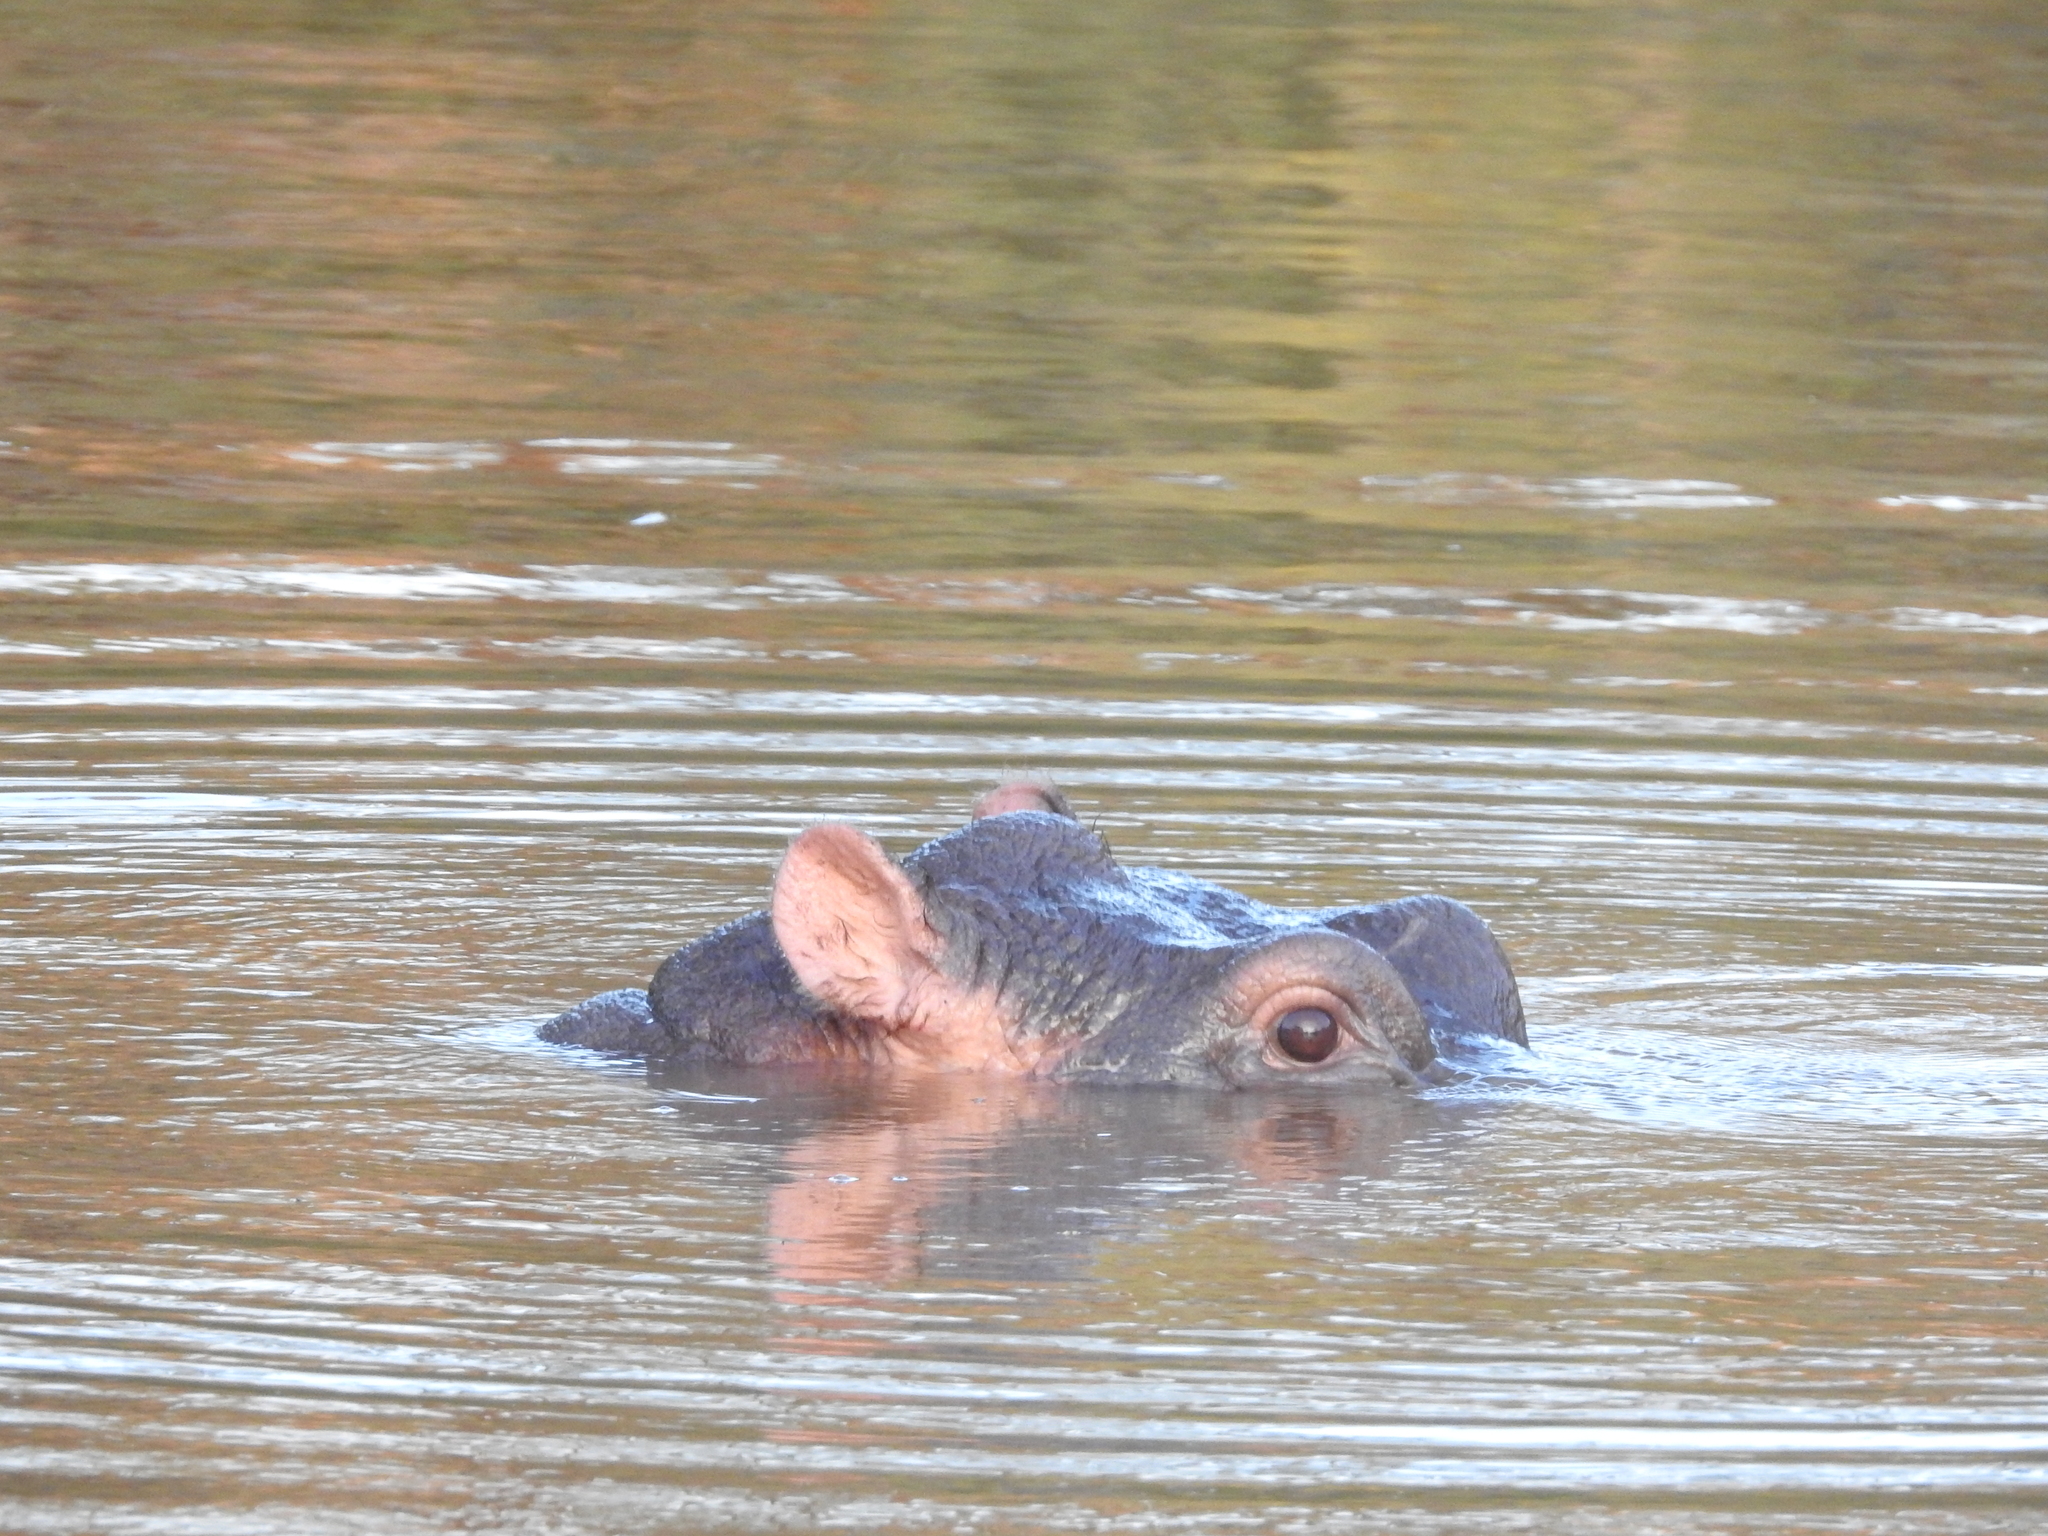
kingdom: Animalia
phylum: Chordata
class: Mammalia
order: Artiodactyla
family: Hippopotamidae
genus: Hippopotamus
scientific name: Hippopotamus amphibius
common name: Common hippopotamus
